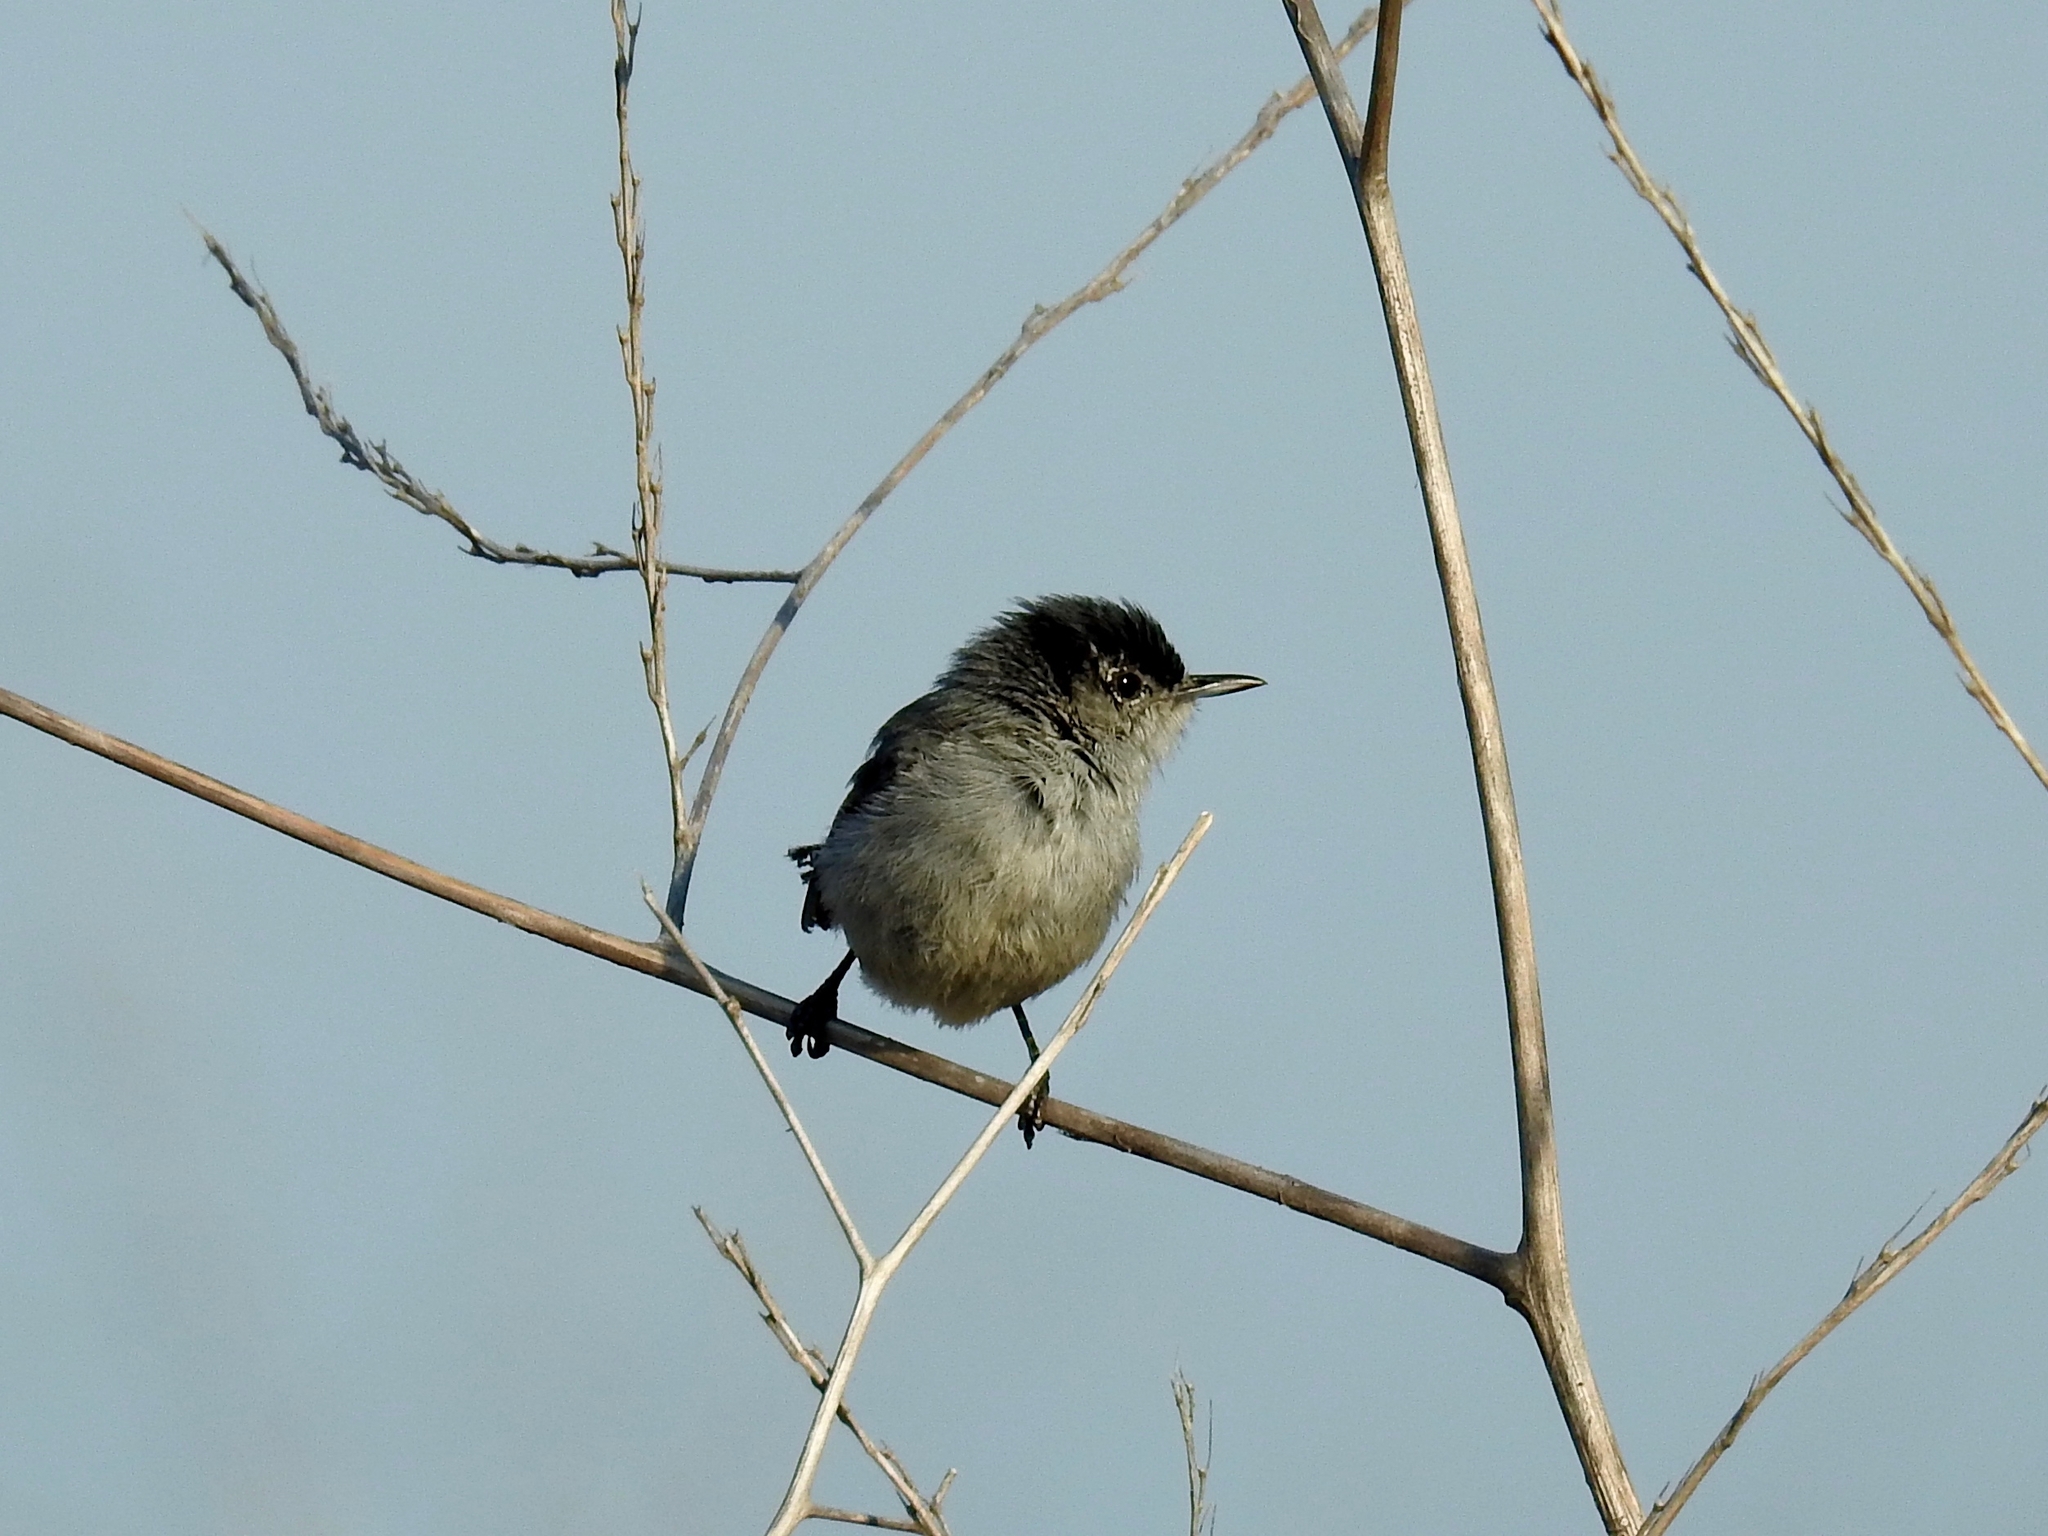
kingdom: Animalia
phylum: Chordata
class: Aves
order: Passeriformes
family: Polioptilidae
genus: Polioptila
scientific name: Polioptila californica
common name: California gnatcatcher
